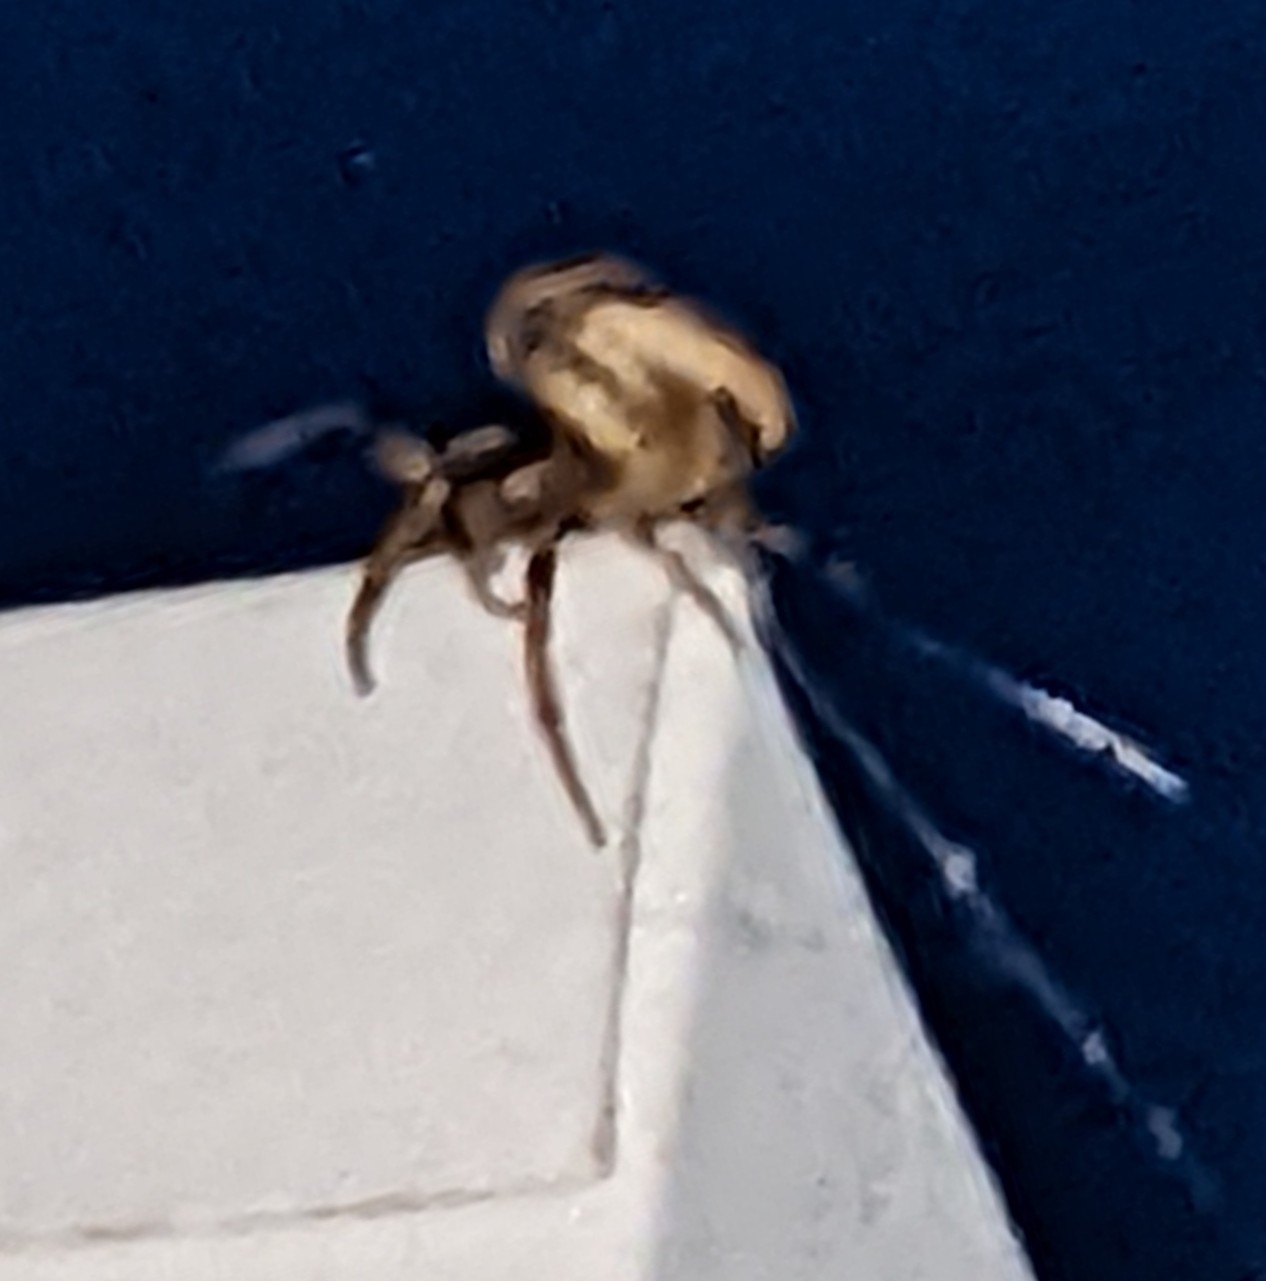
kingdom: Animalia
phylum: Arthropoda
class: Arachnida
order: Araneae
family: Araneidae
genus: Larinioides
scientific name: Larinioides cornutus
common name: Furrow orbweaver
